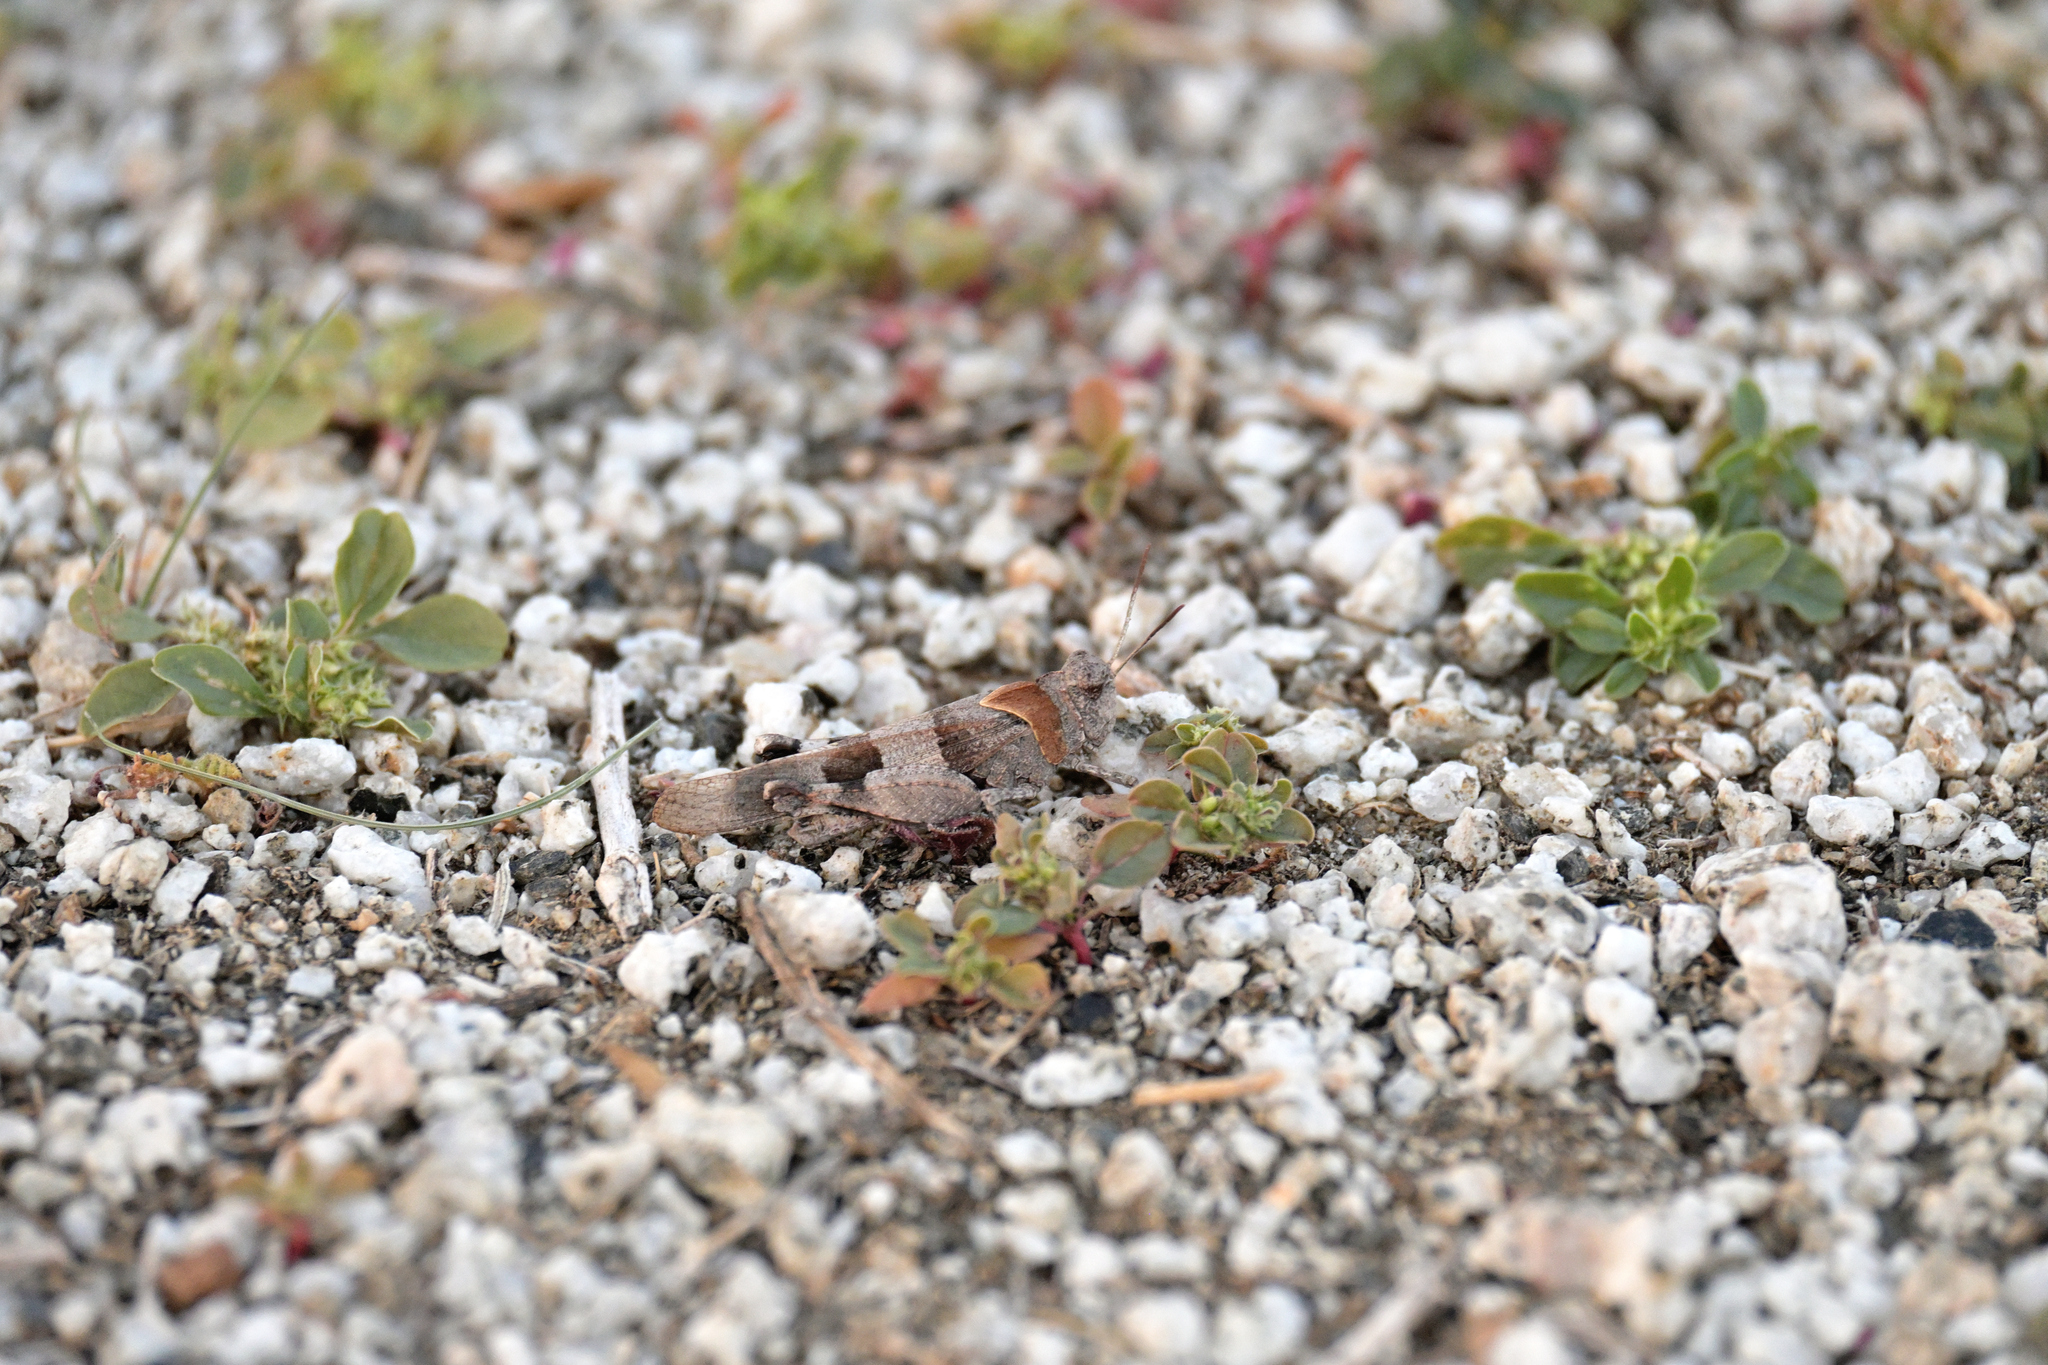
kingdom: Animalia
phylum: Arthropoda
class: Insecta
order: Orthoptera
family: Acrididae
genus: Oedipoda
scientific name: Oedipoda caerulescens
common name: Blue-winged grasshopper
